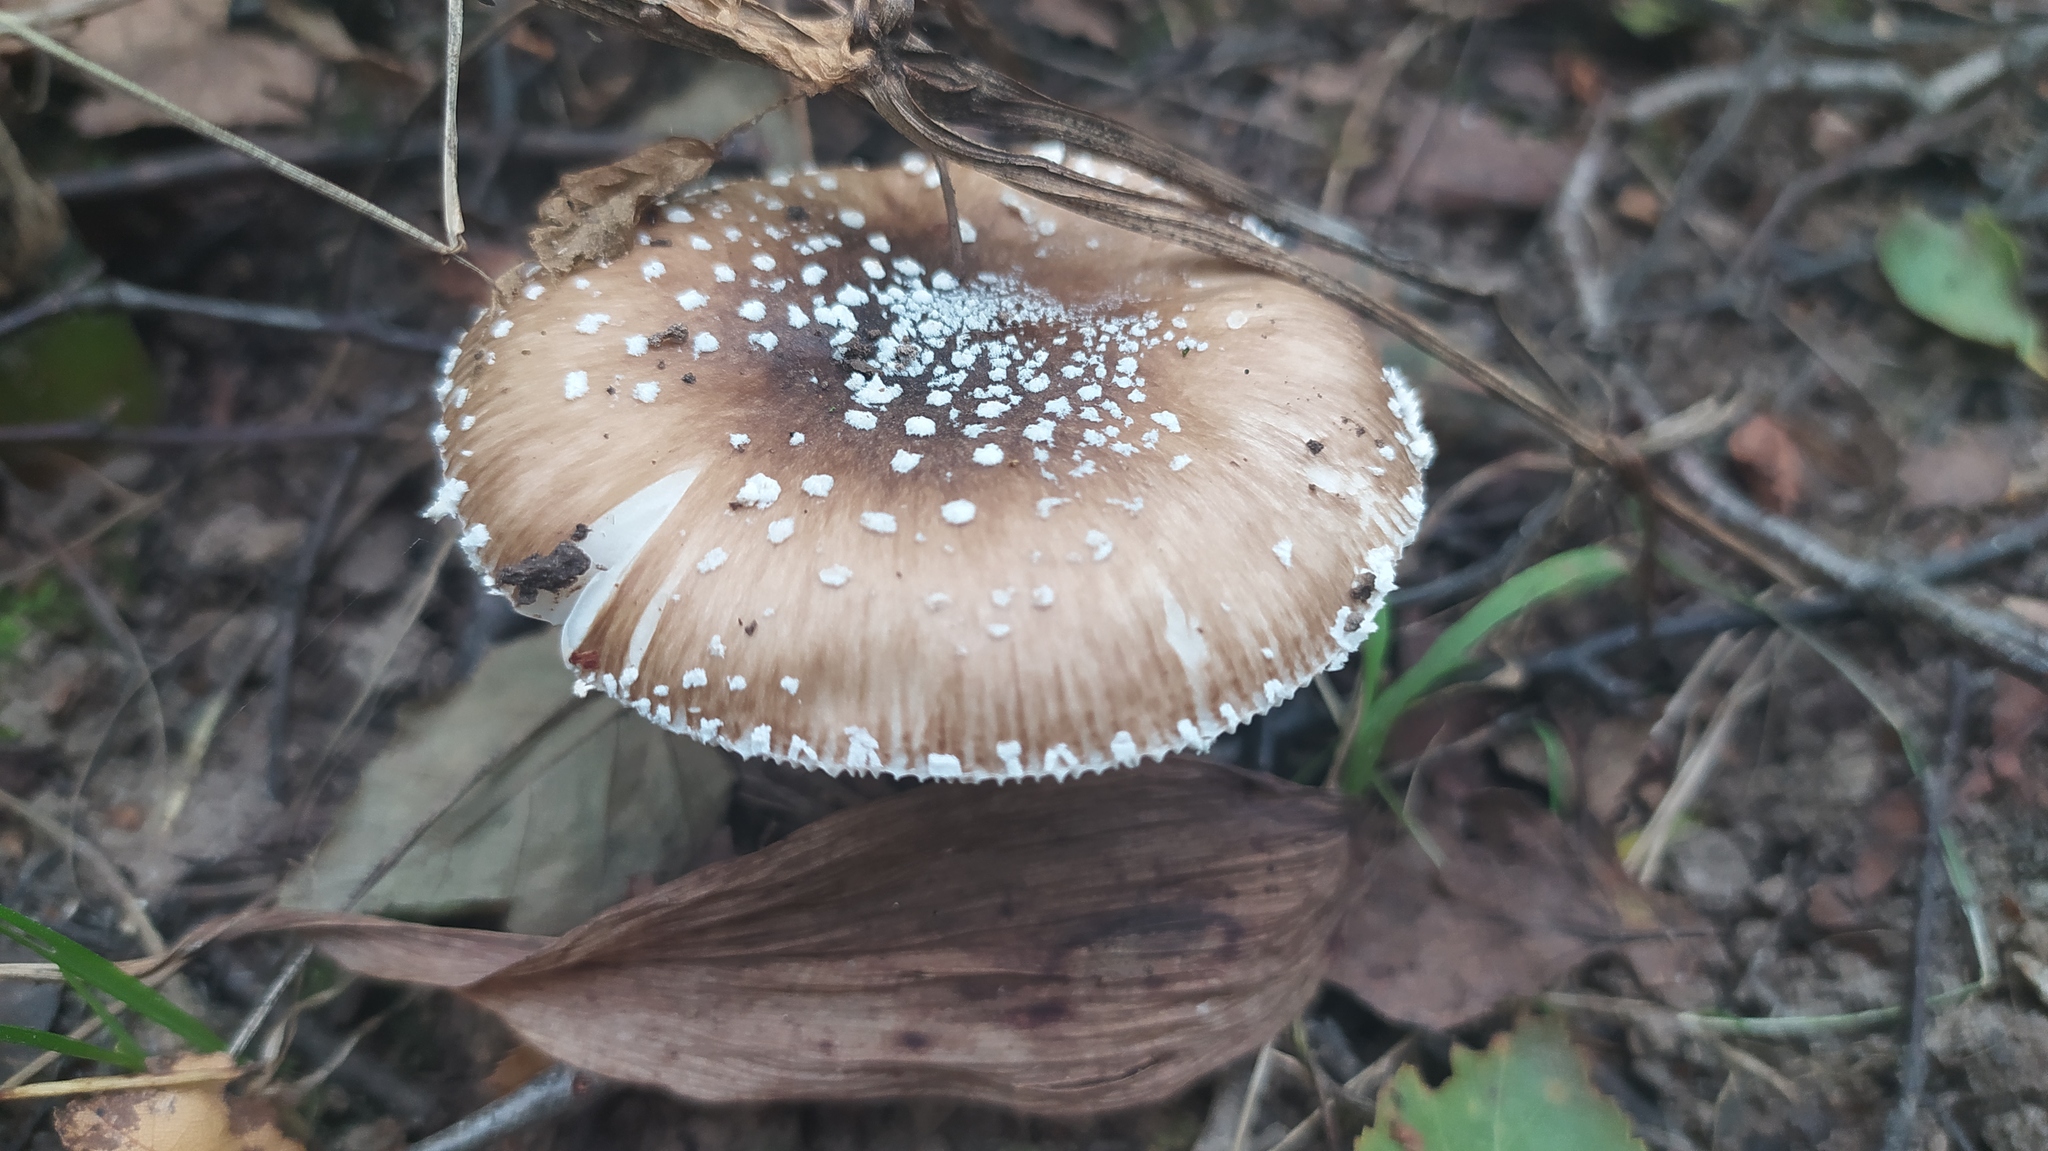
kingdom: Fungi
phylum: Basidiomycota
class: Agaricomycetes
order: Agaricales
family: Amanitaceae
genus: Amanita
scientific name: Amanita pantherina
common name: Panthercap
